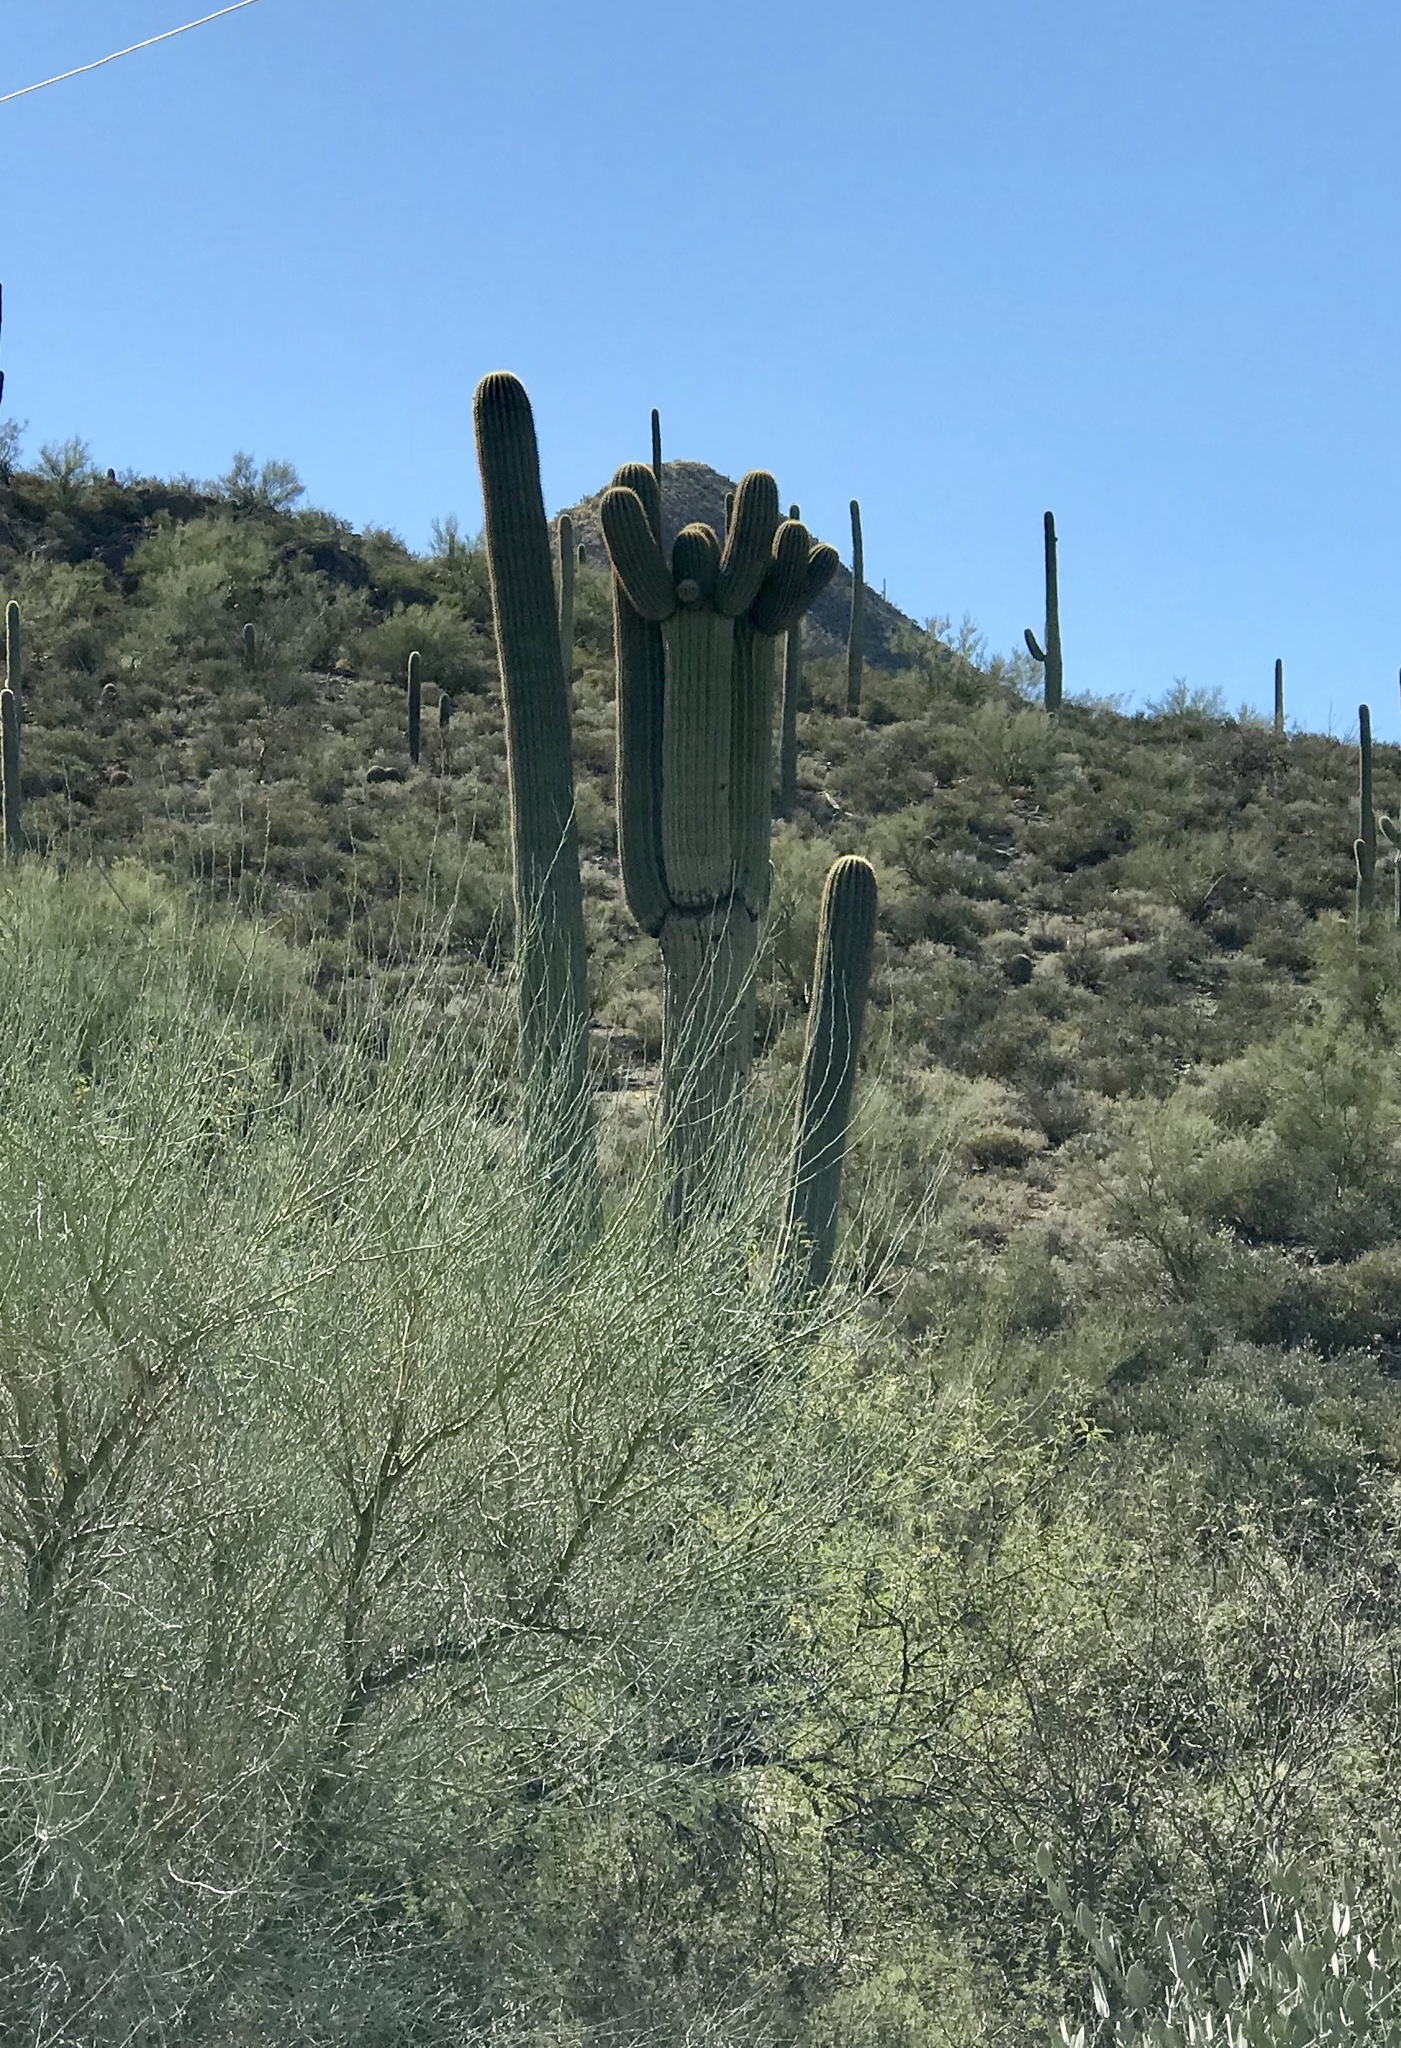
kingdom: Plantae
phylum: Tracheophyta
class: Magnoliopsida
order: Caryophyllales
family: Cactaceae
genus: Carnegiea
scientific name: Carnegiea gigantea
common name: Saguaro
